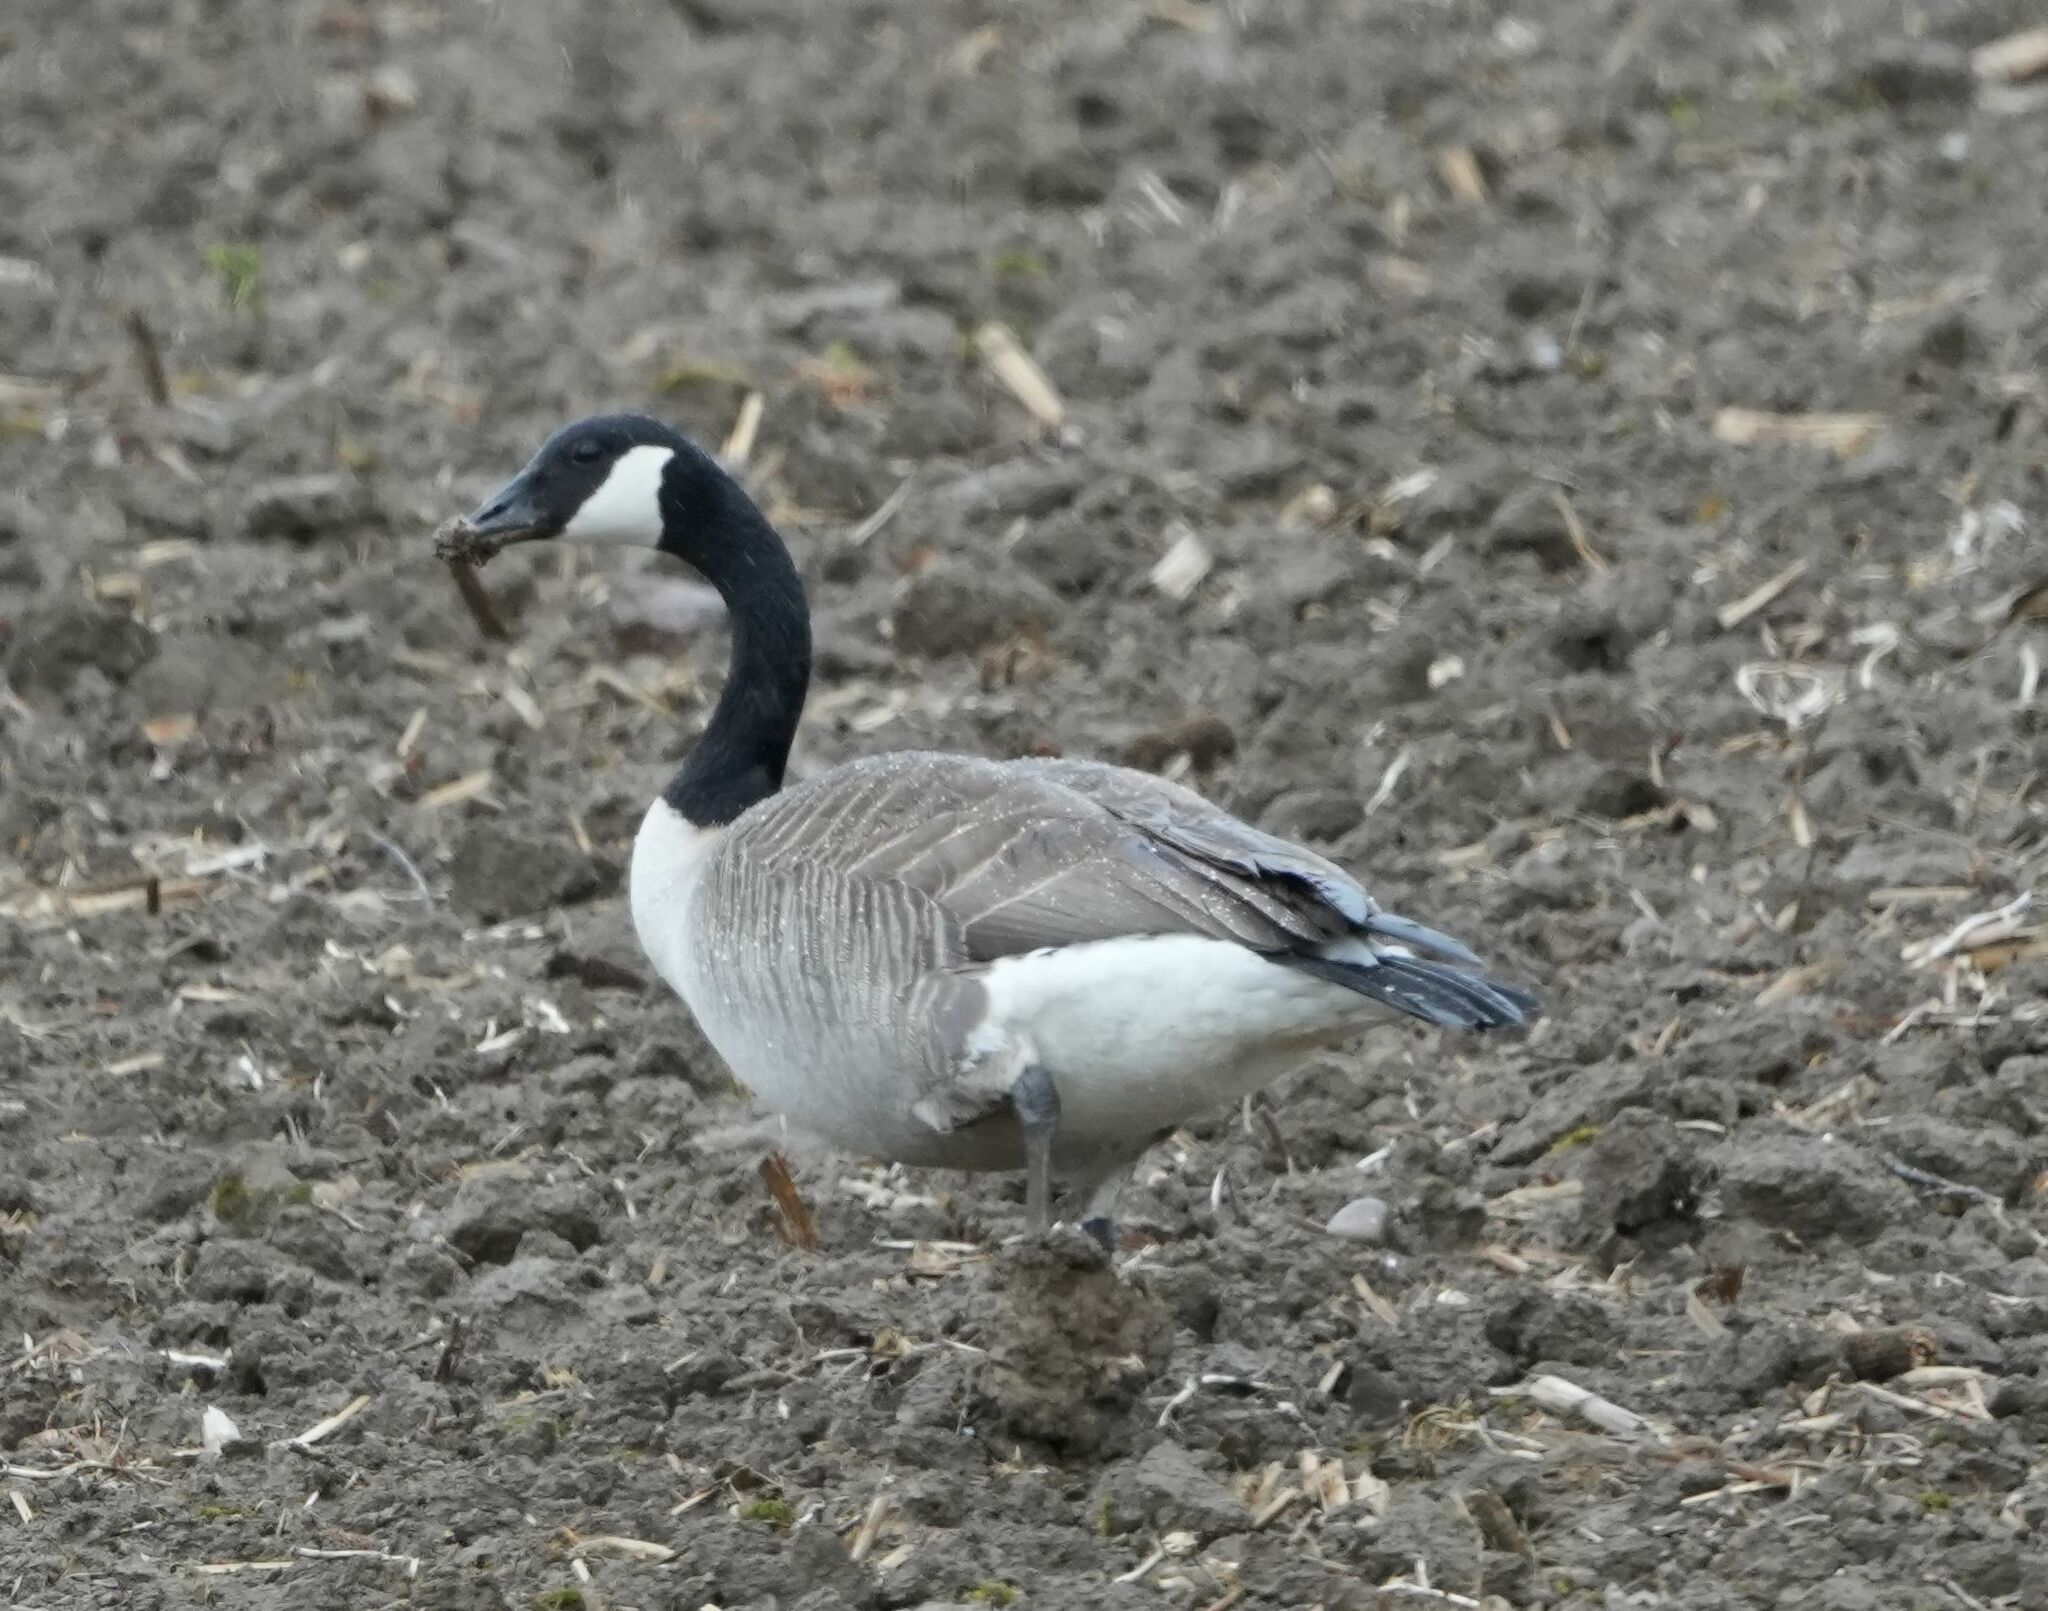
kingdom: Animalia
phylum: Chordata
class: Aves
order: Anseriformes
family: Anatidae
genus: Branta
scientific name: Branta canadensis
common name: Canada goose
